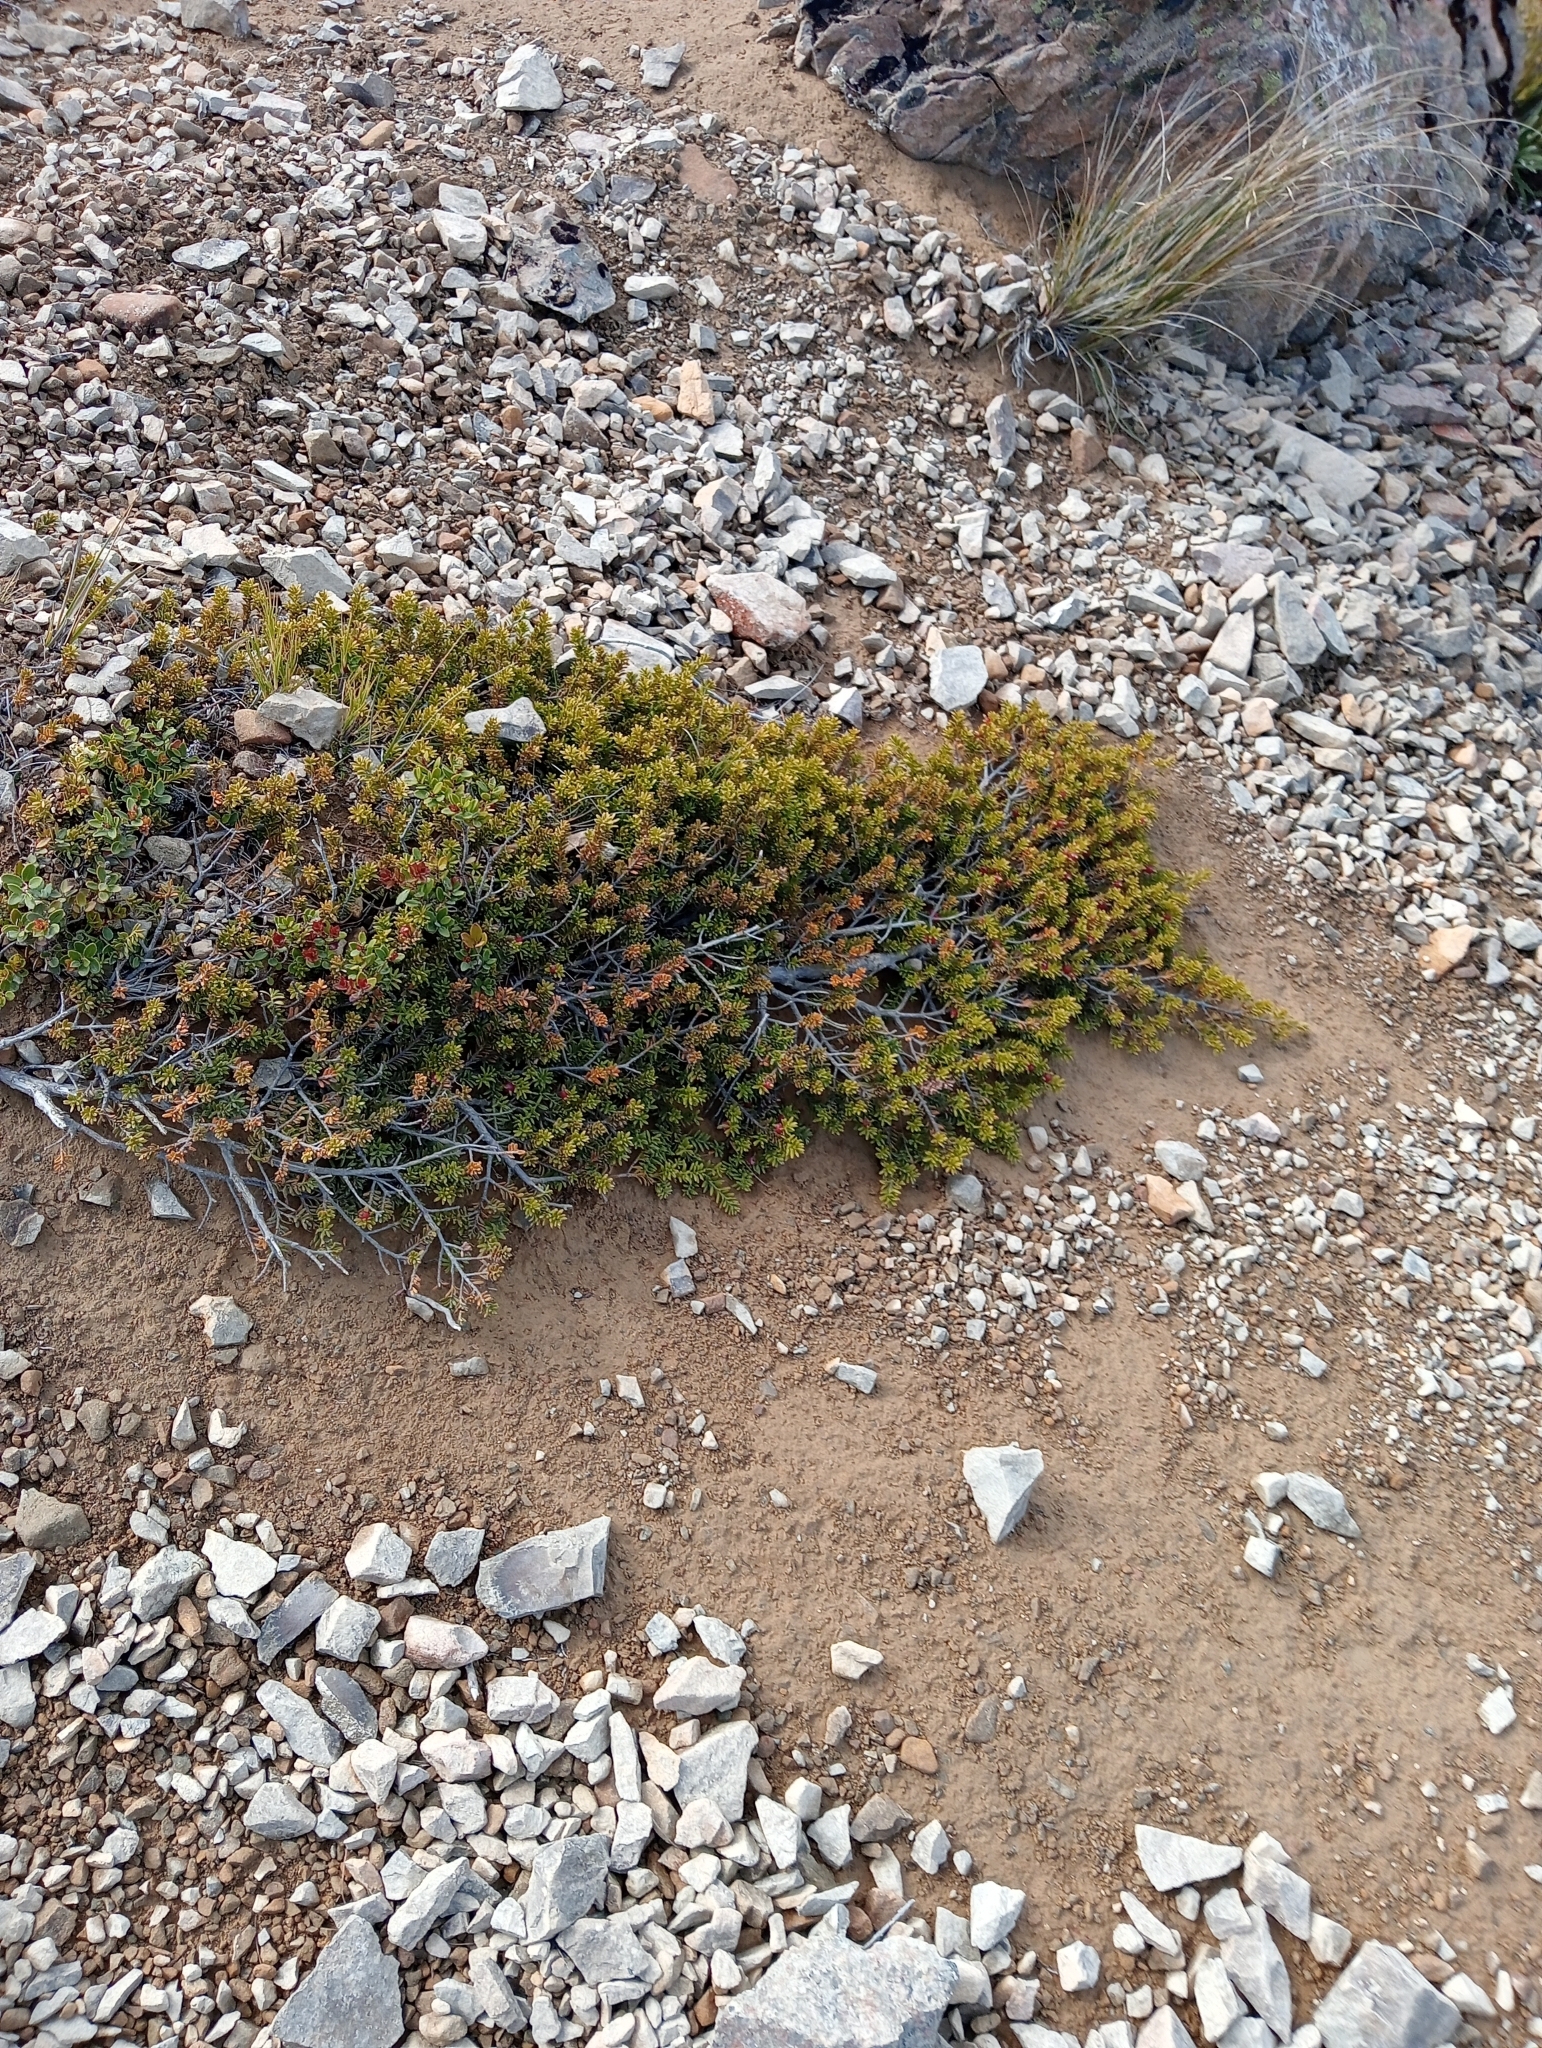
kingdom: Plantae
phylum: Tracheophyta
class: Pinopsida
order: Pinales
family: Podocarpaceae
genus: Podocarpus
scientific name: Podocarpus nivalis
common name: Alpine totara
